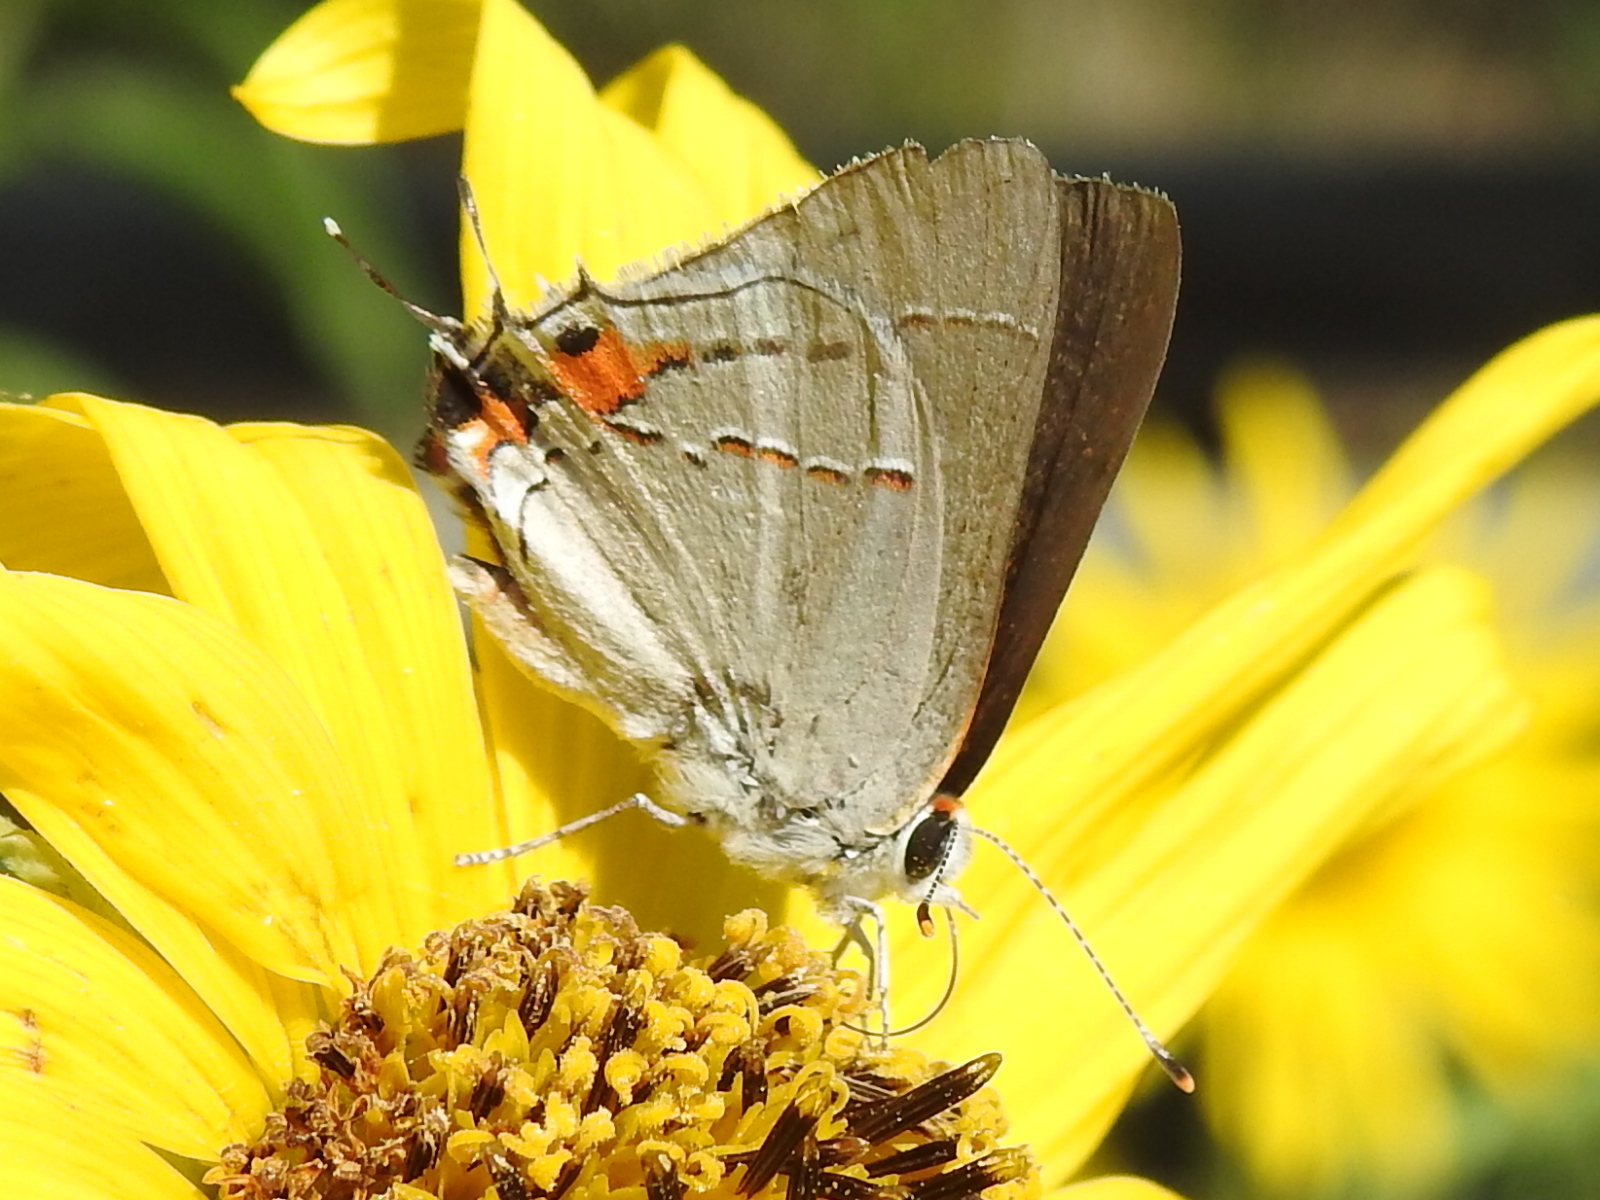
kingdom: Animalia
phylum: Arthropoda
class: Insecta
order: Lepidoptera
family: Lycaenidae
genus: Strymon
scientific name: Strymon melinus
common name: Gray hairstreak
